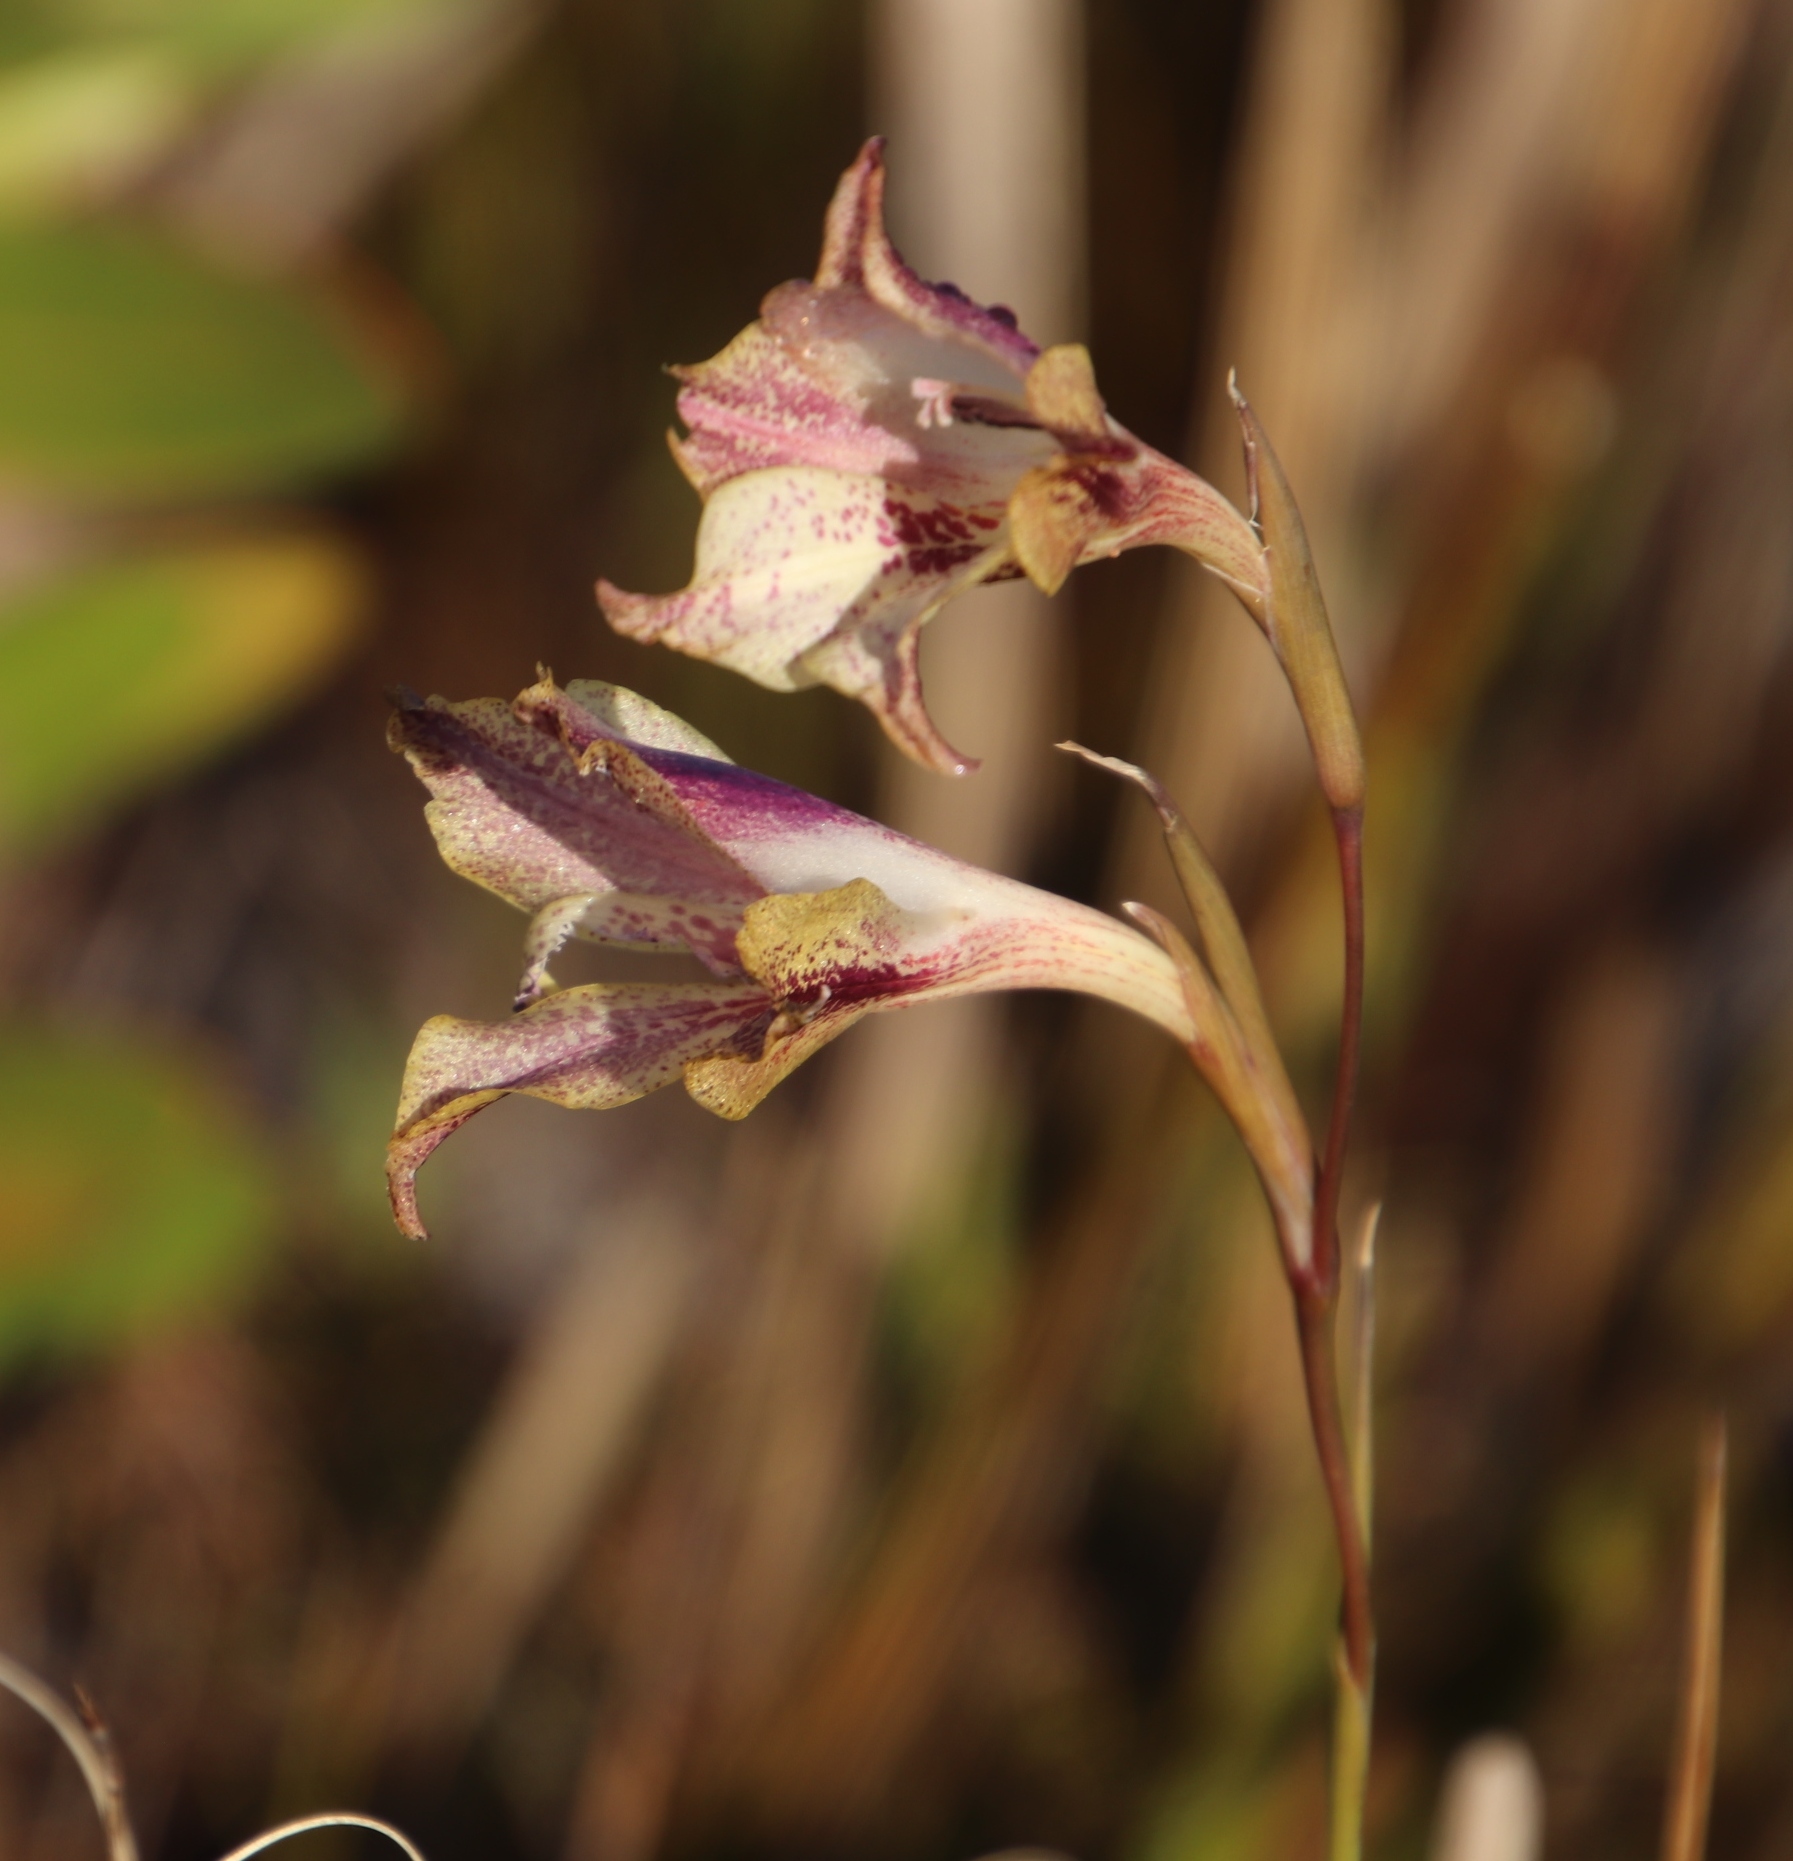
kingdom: Plantae
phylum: Tracheophyta
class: Liliopsida
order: Asparagales
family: Iridaceae
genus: Gladiolus
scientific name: Gladiolus maculatus
